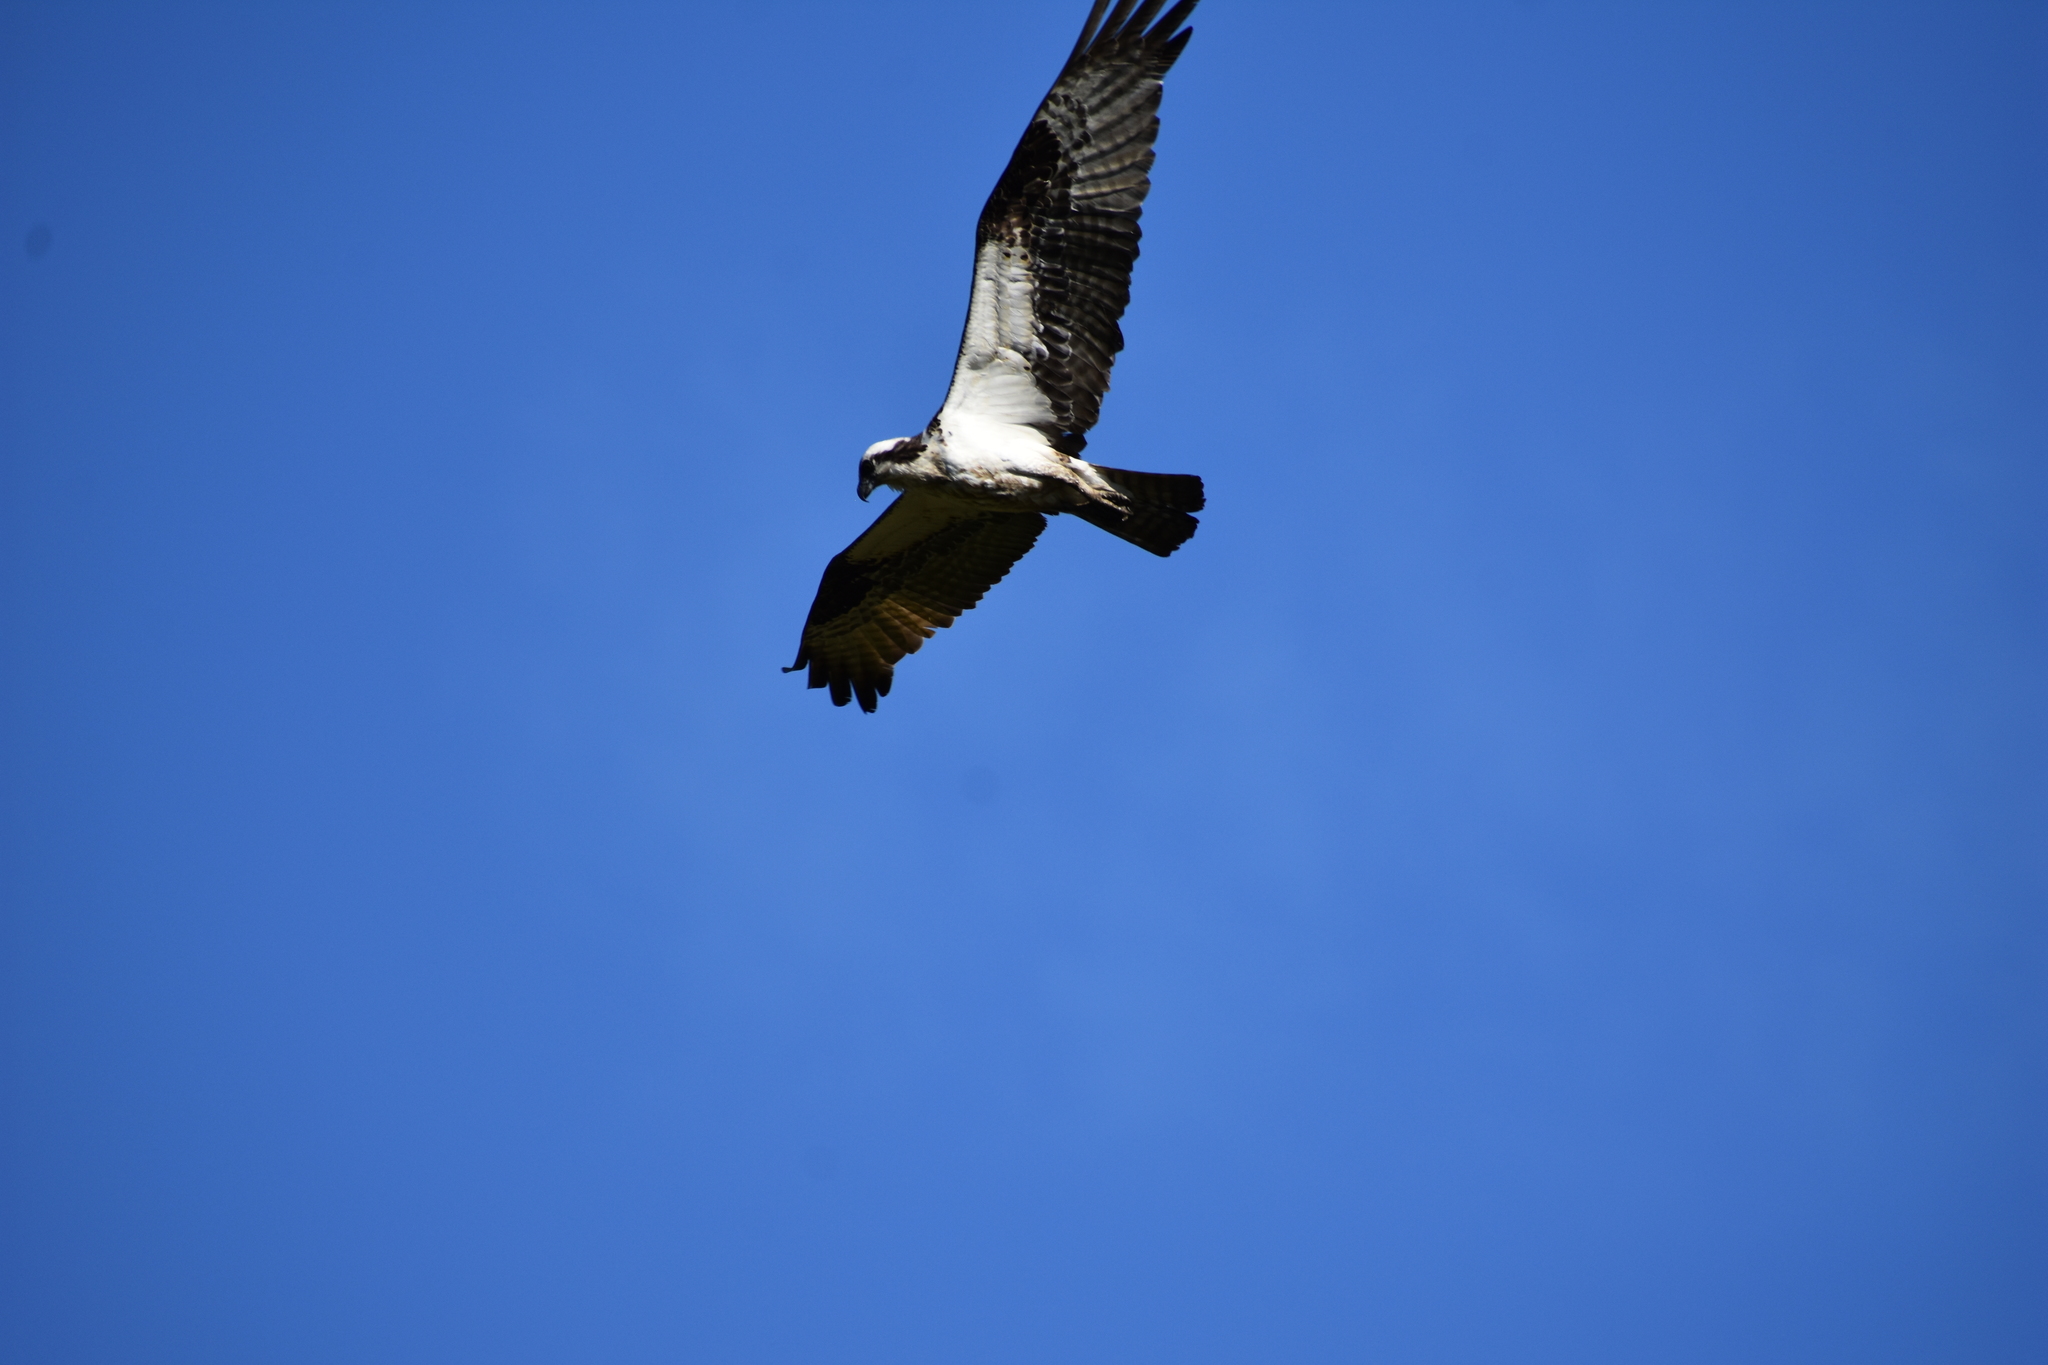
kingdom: Animalia
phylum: Chordata
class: Aves
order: Accipitriformes
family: Pandionidae
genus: Pandion
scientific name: Pandion haliaetus
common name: Osprey
